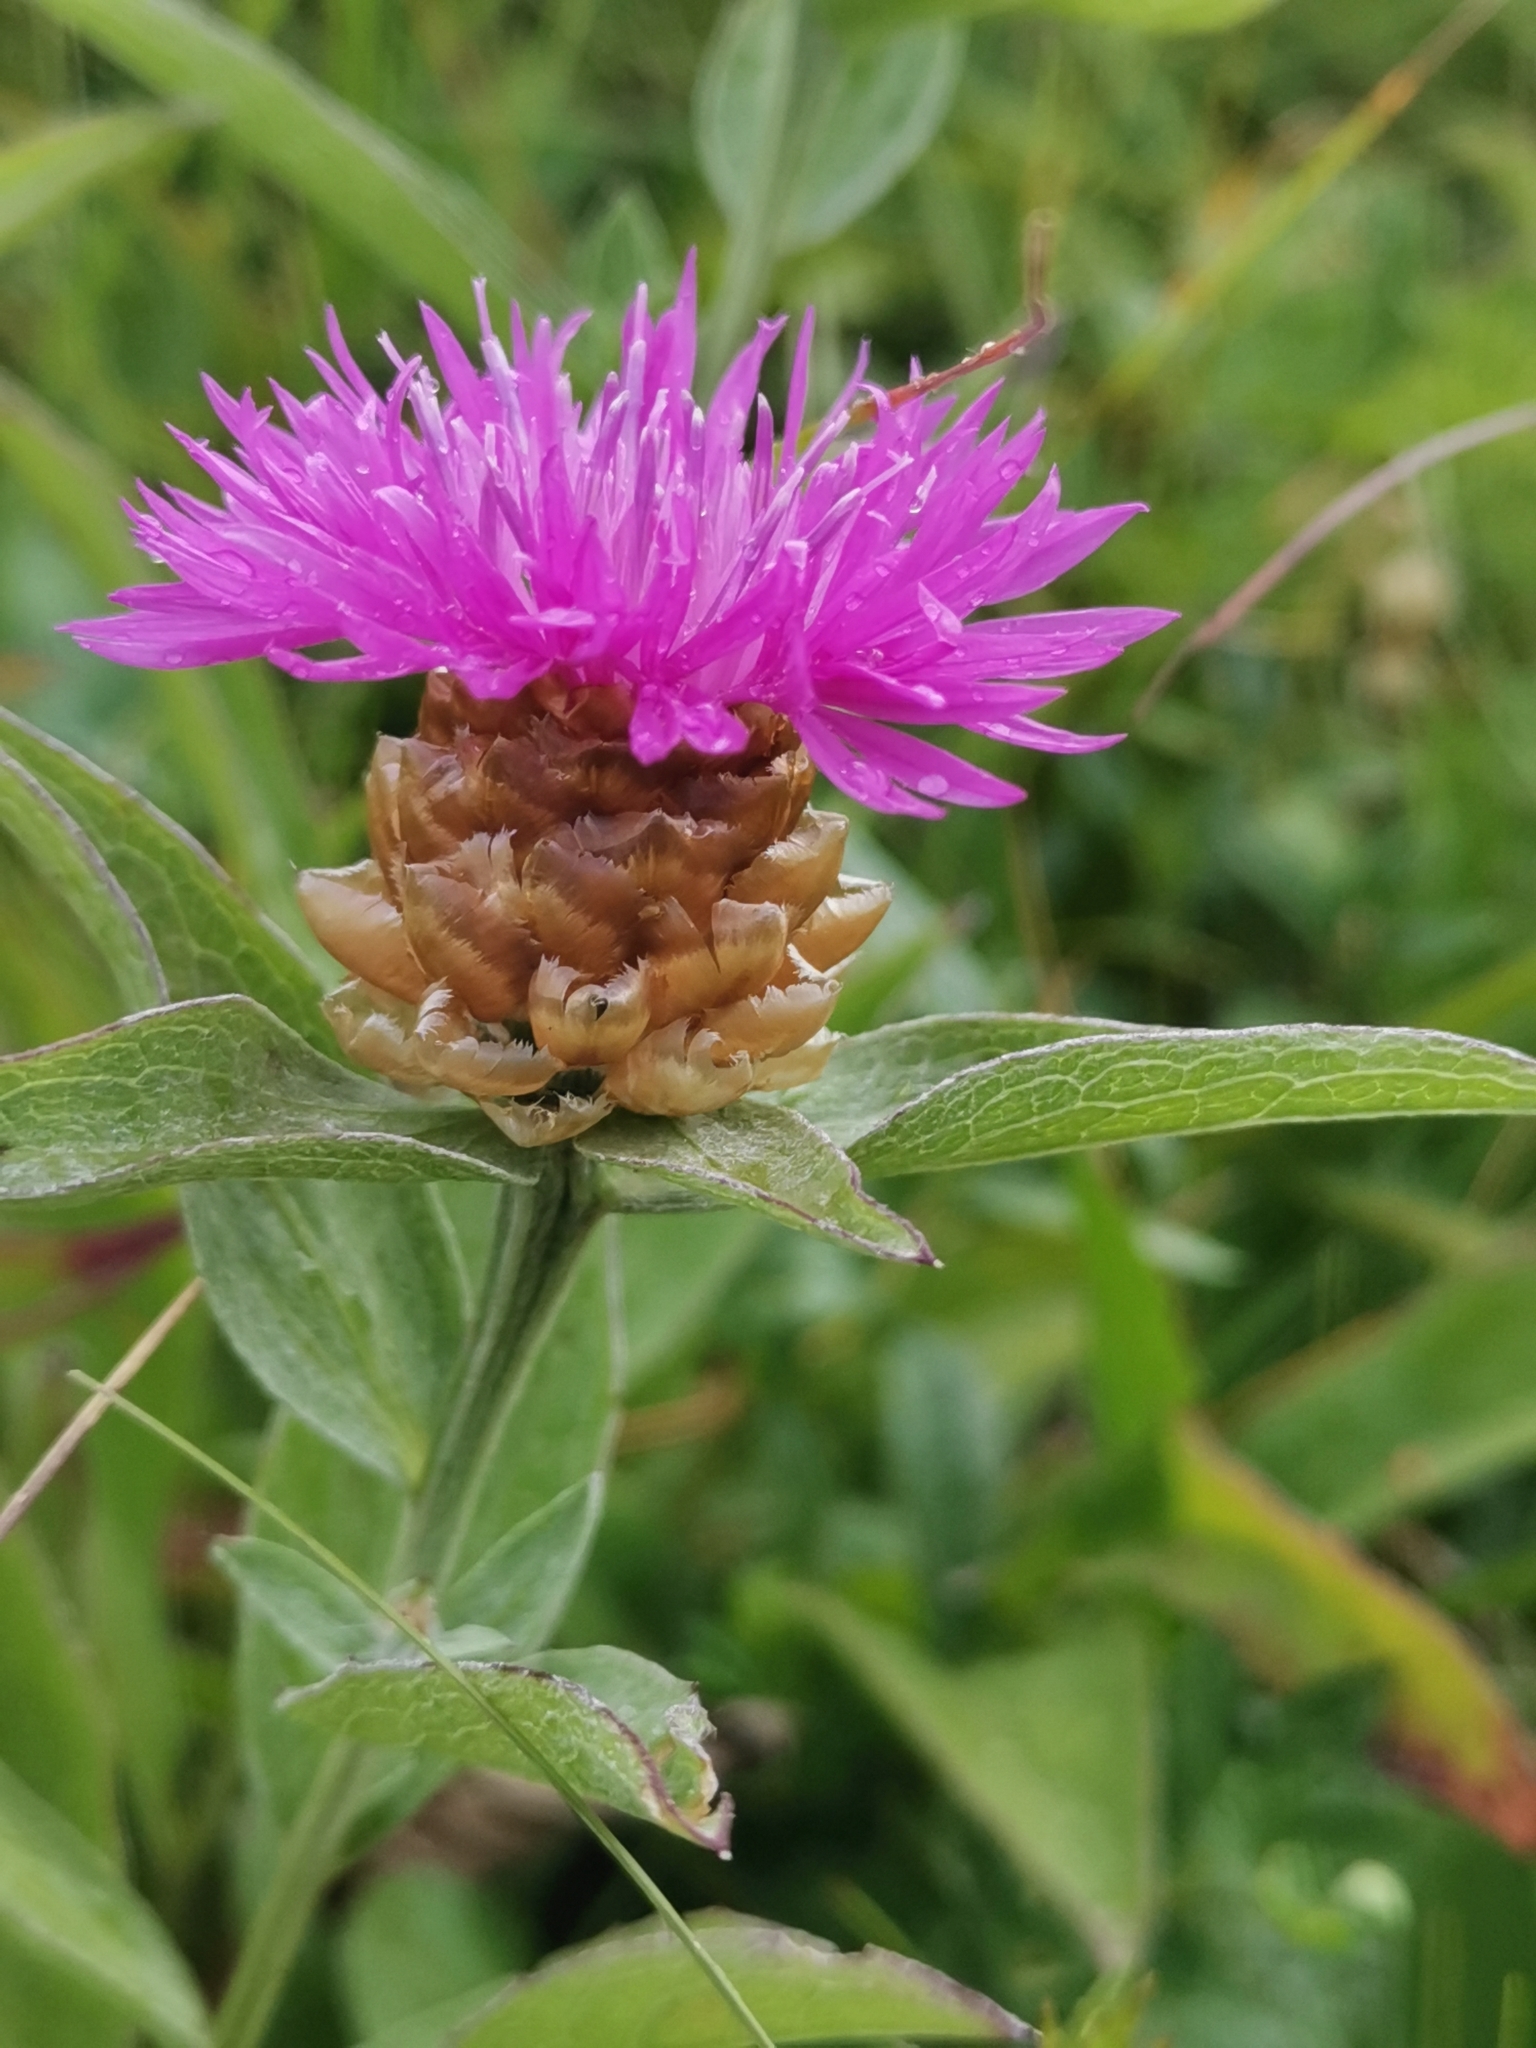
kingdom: Plantae
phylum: Tracheophyta
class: Magnoliopsida
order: Asterales
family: Asteraceae
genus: Centaurea
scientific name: Centaurea jacea
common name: Brown knapweed
